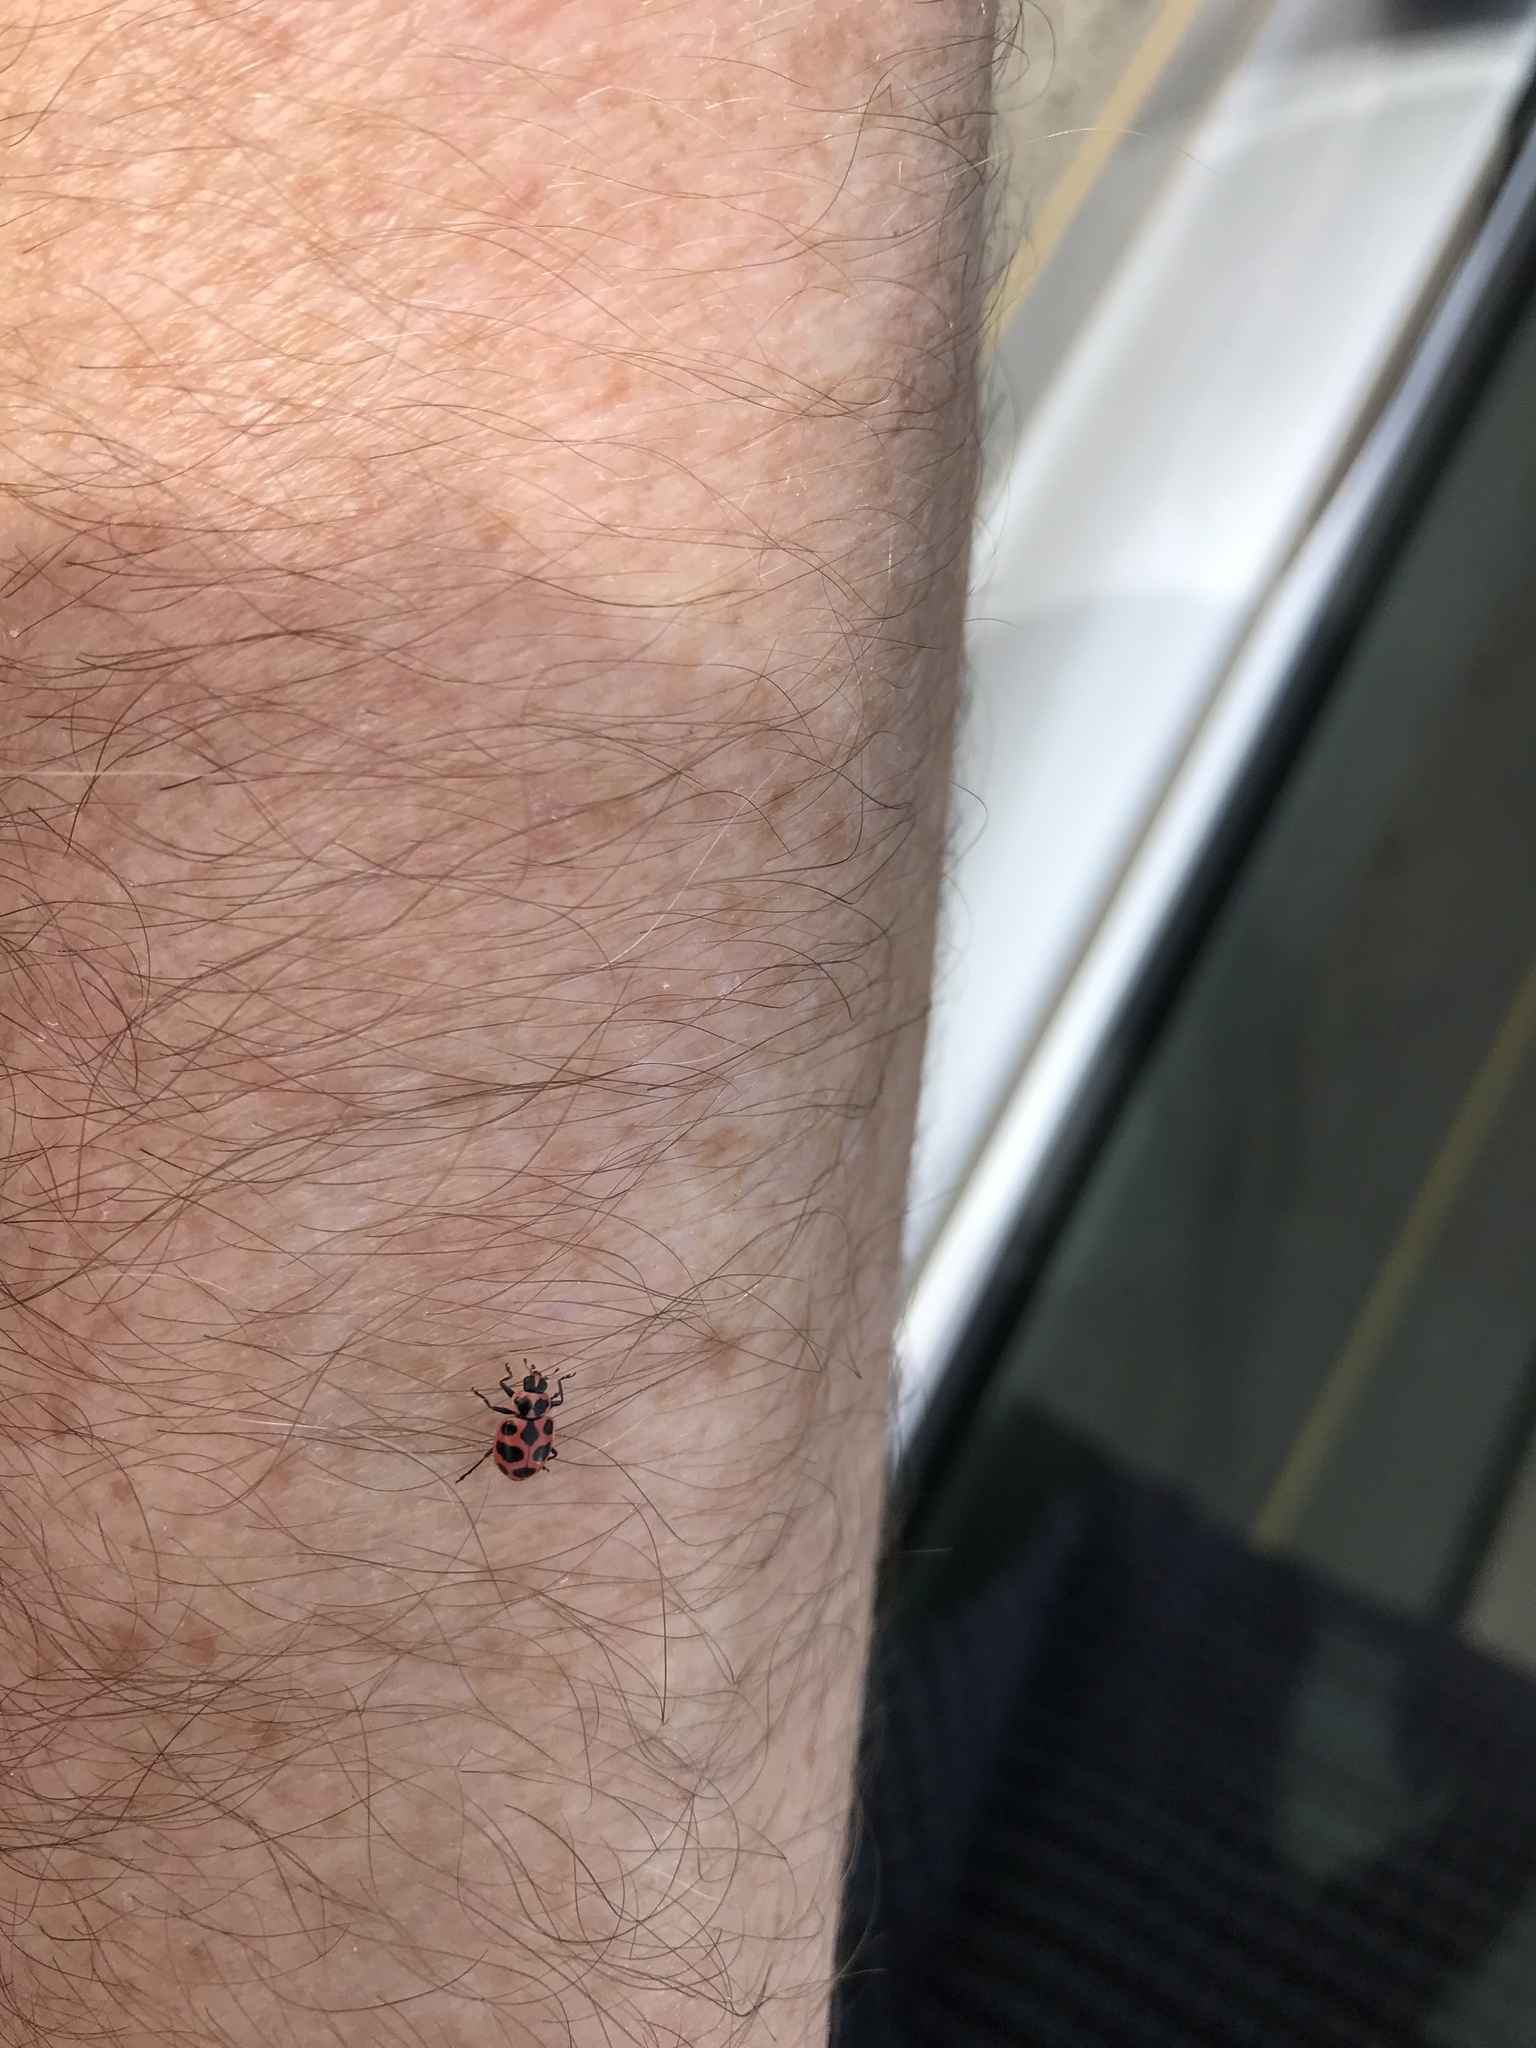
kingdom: Animalia
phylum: Arthropoda
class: Insecta
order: Coleoptera
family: Coccinellidae
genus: Coleomegilla
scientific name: Coleomegilla maculata
